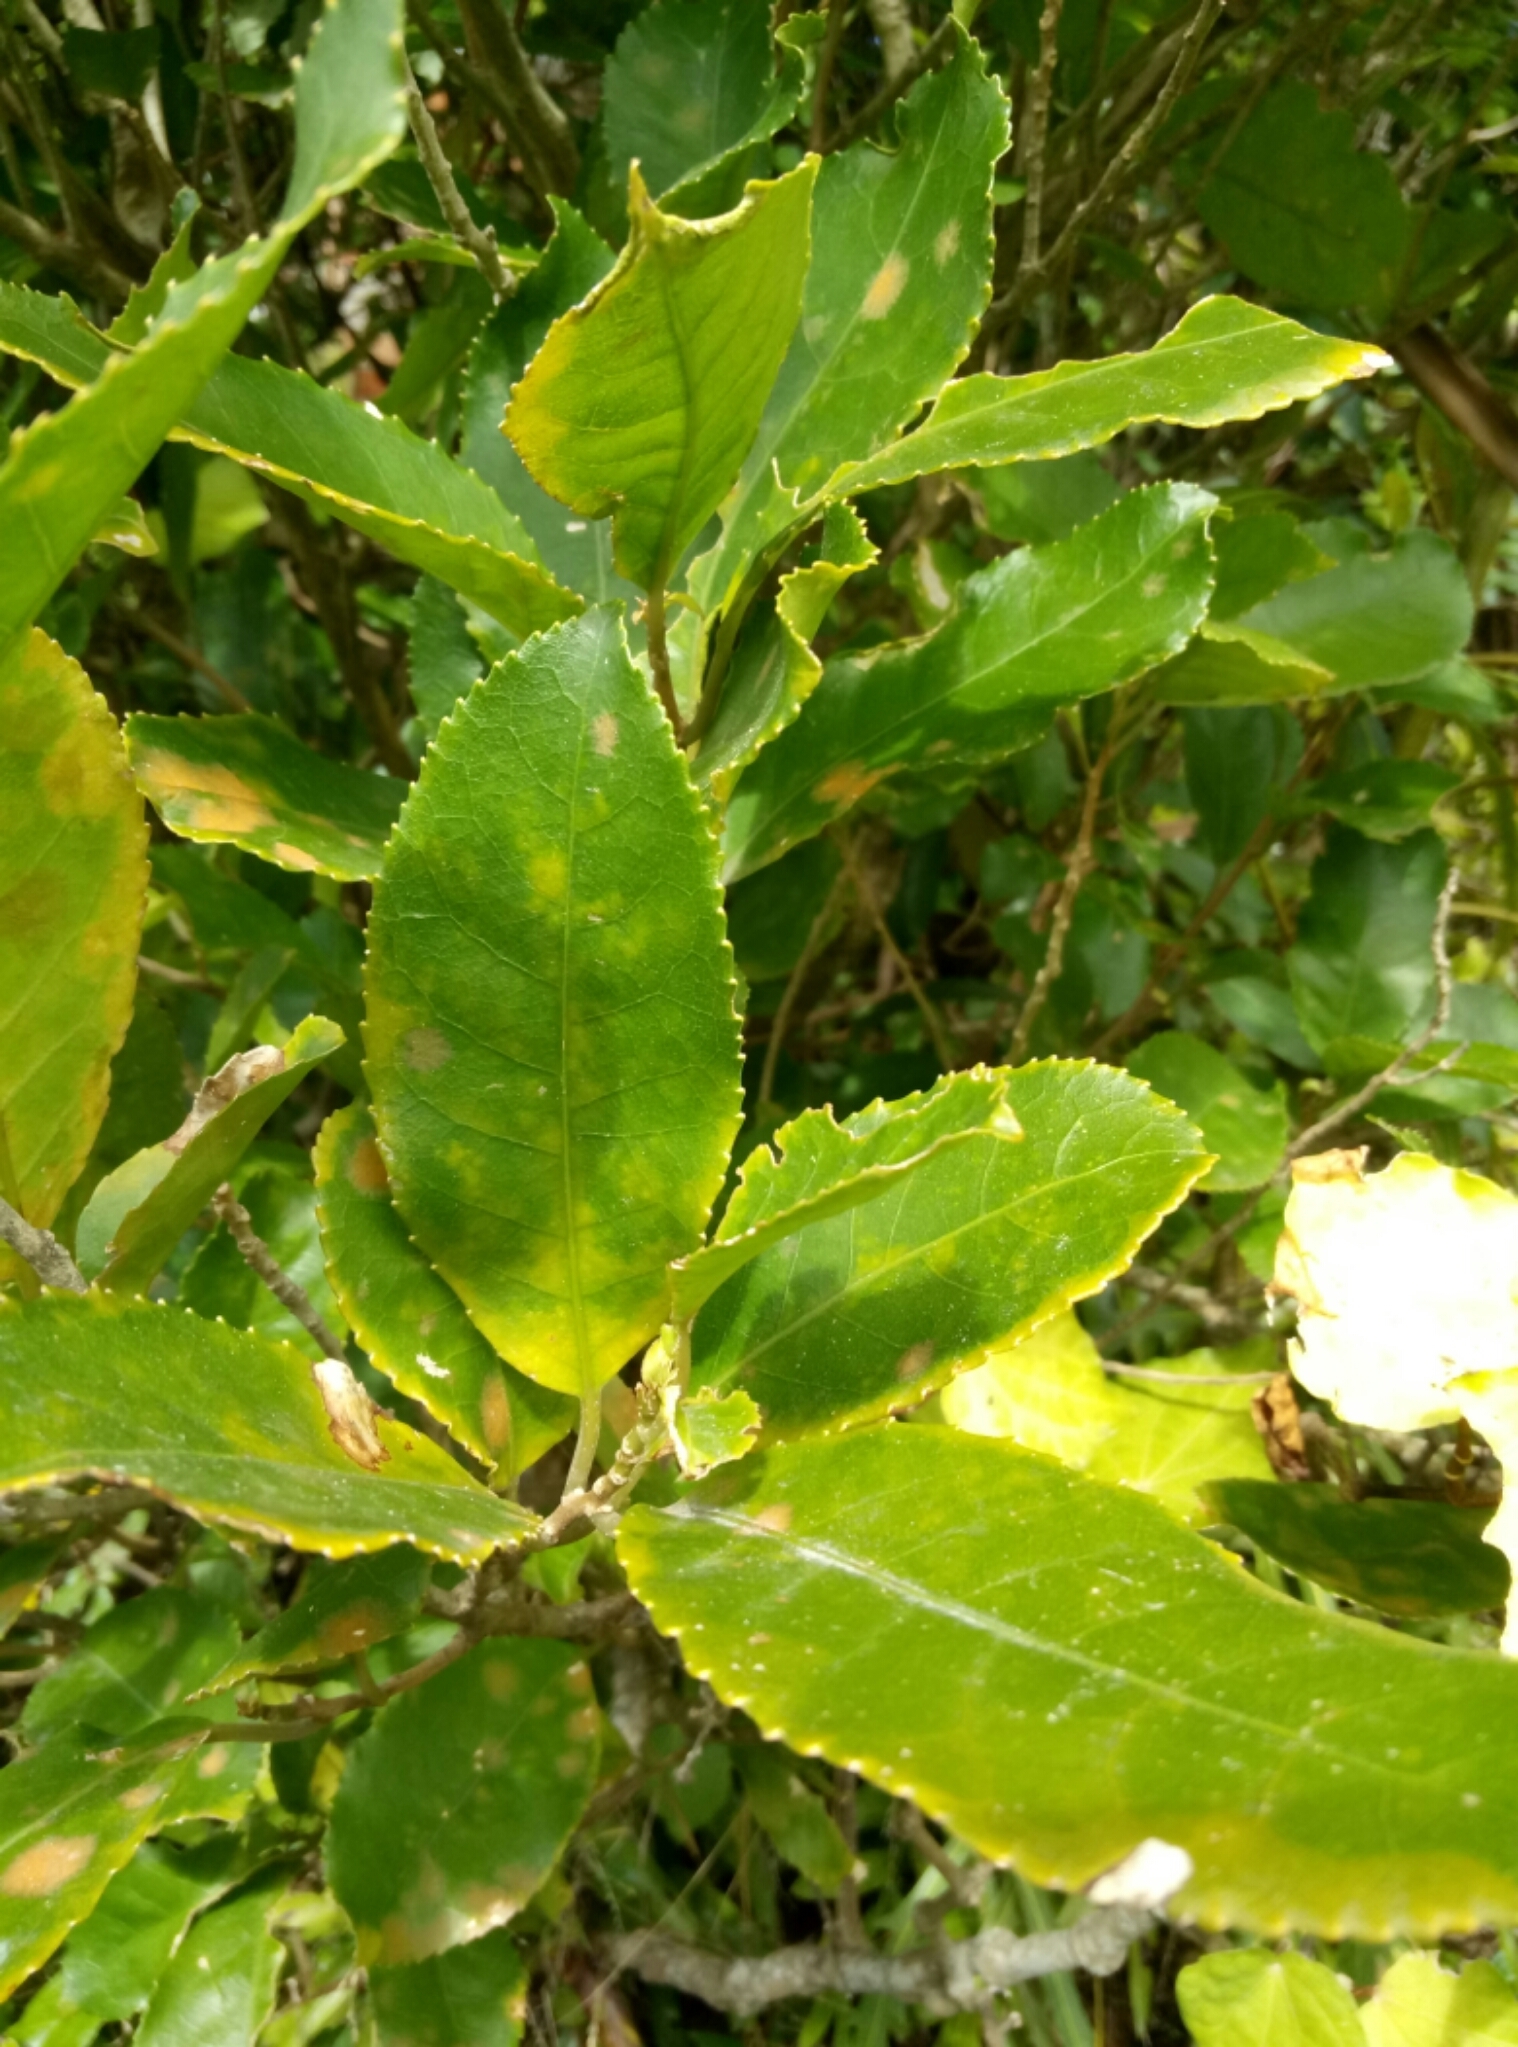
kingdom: Plantae
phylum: Tracheophyta
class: Magnoliopsida
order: Malpighiales
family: Violaceae
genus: Melicytus
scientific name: Melicytus ramiflorus
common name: Mahoe
